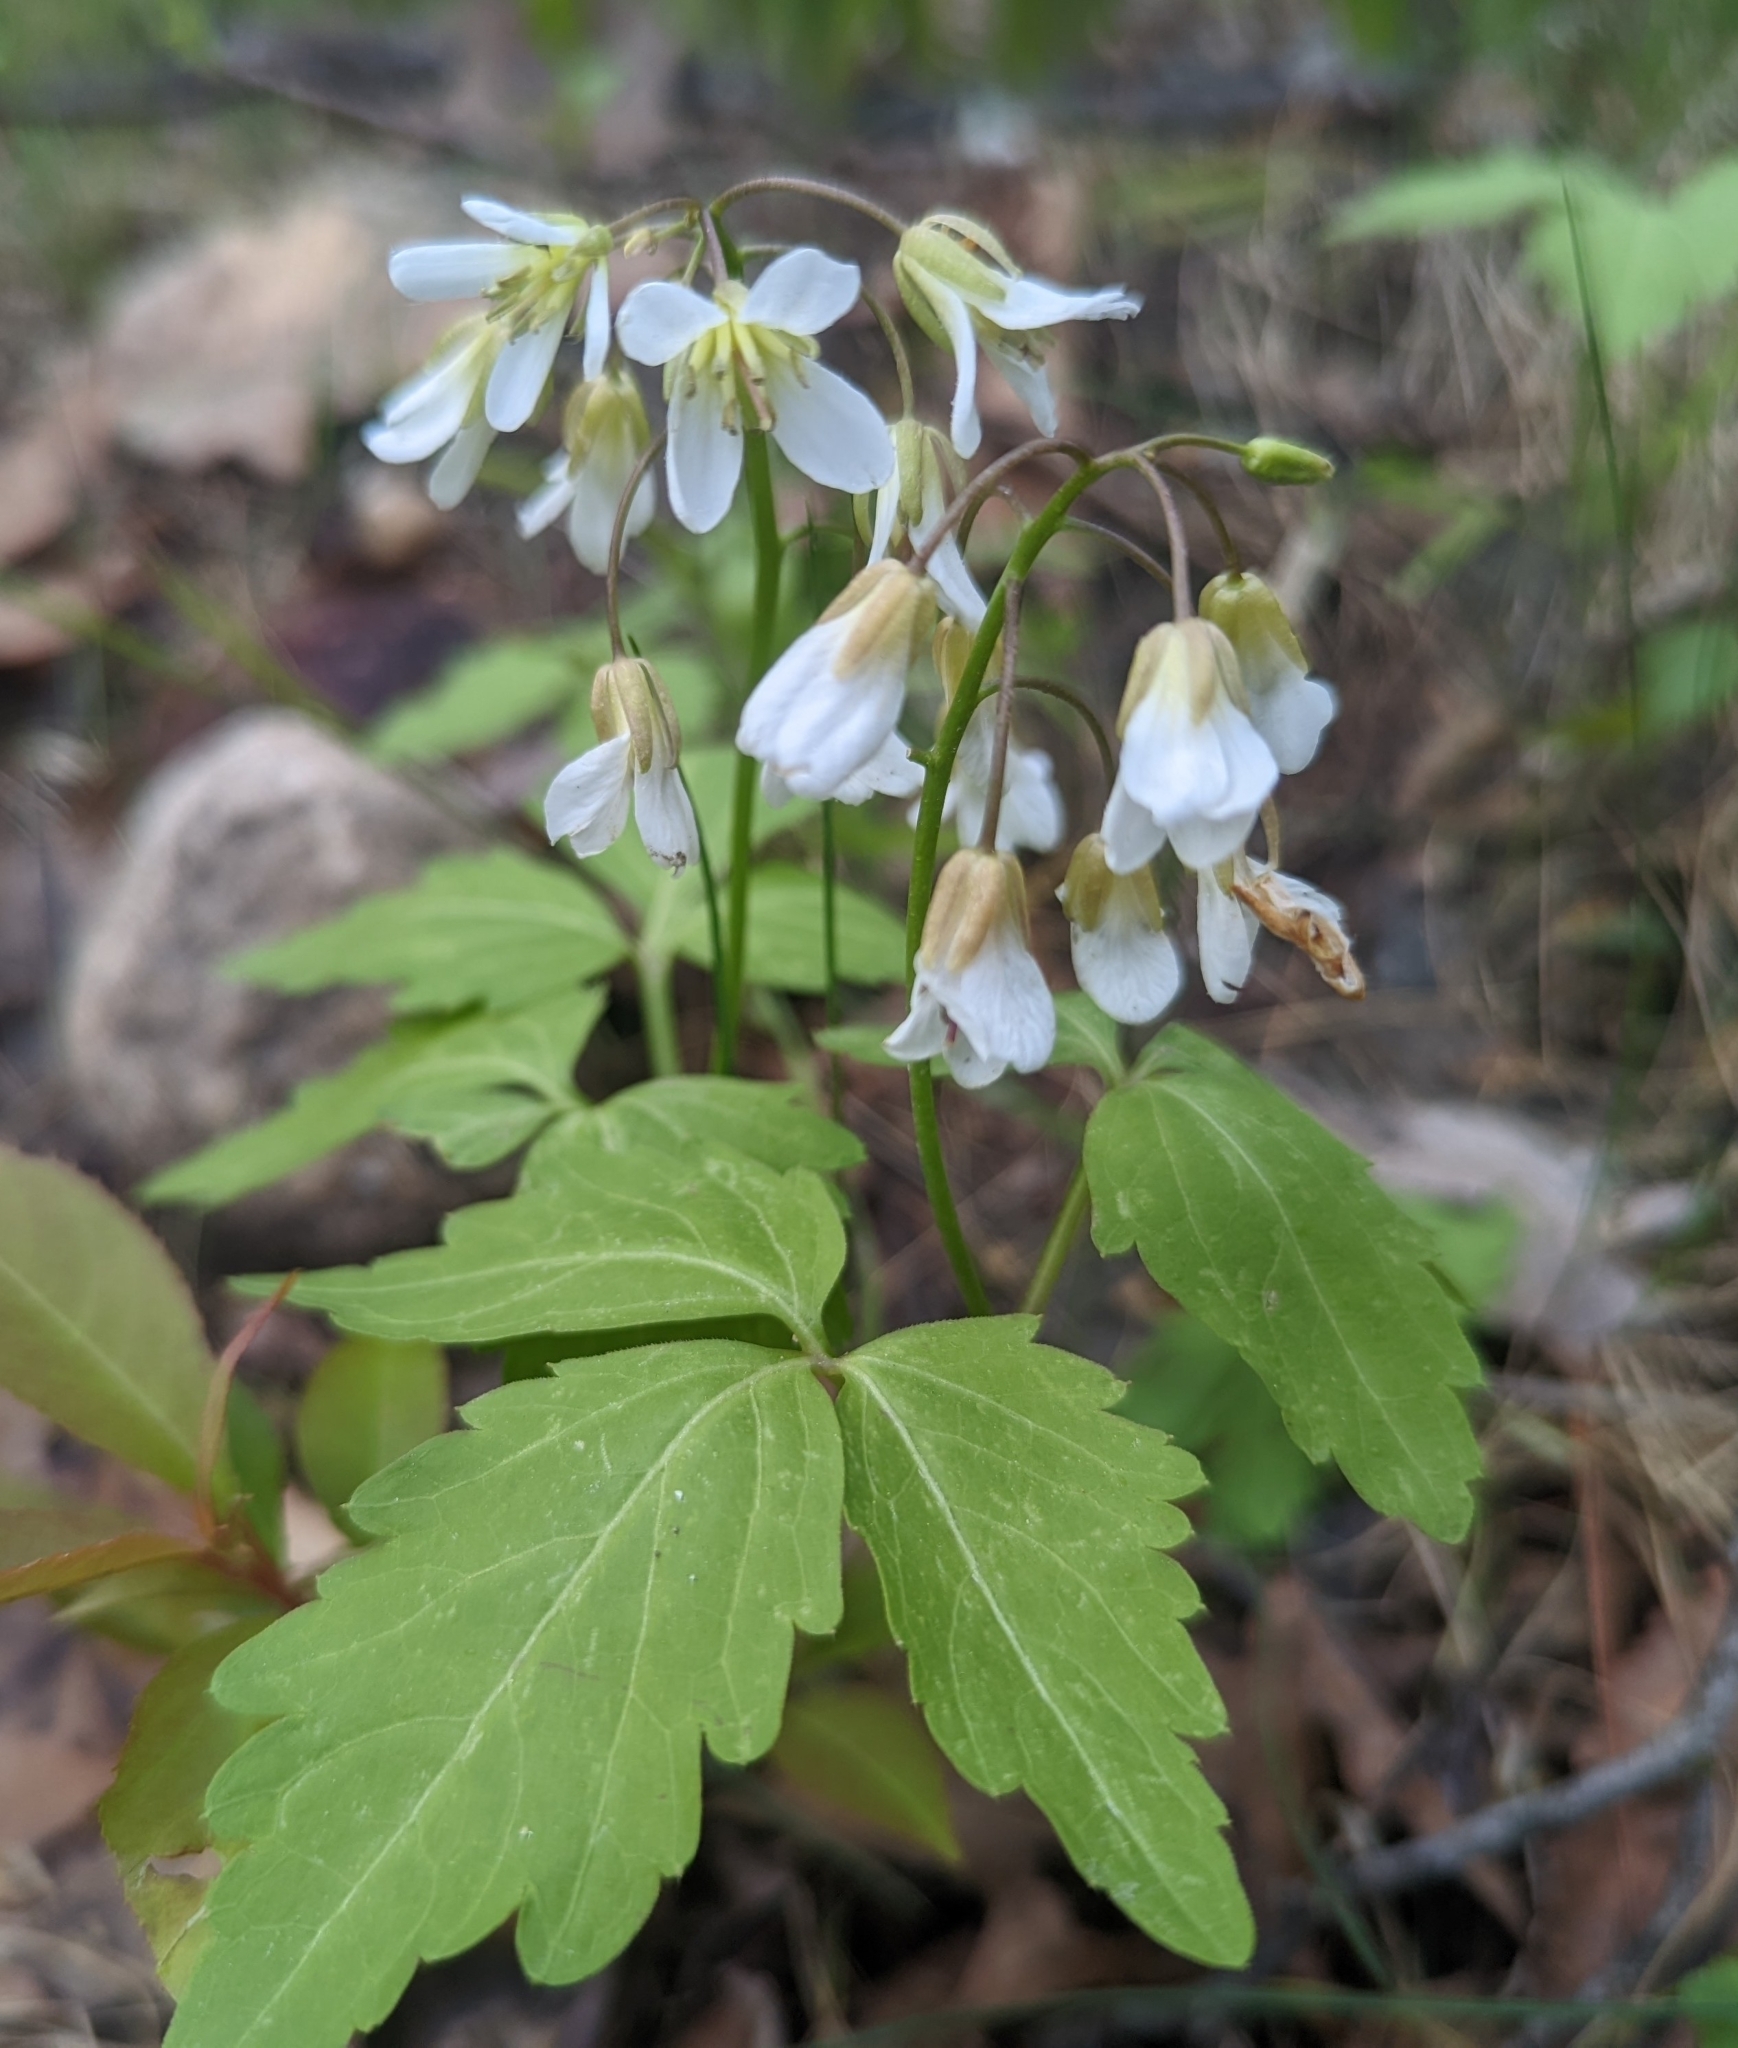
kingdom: Plantae
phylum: Tracheophyta
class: Magnoliopsida
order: Brassicales
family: Brassicaceae
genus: Cardamine
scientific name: Cardamine diphylla
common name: Broad-leaved toothwort
